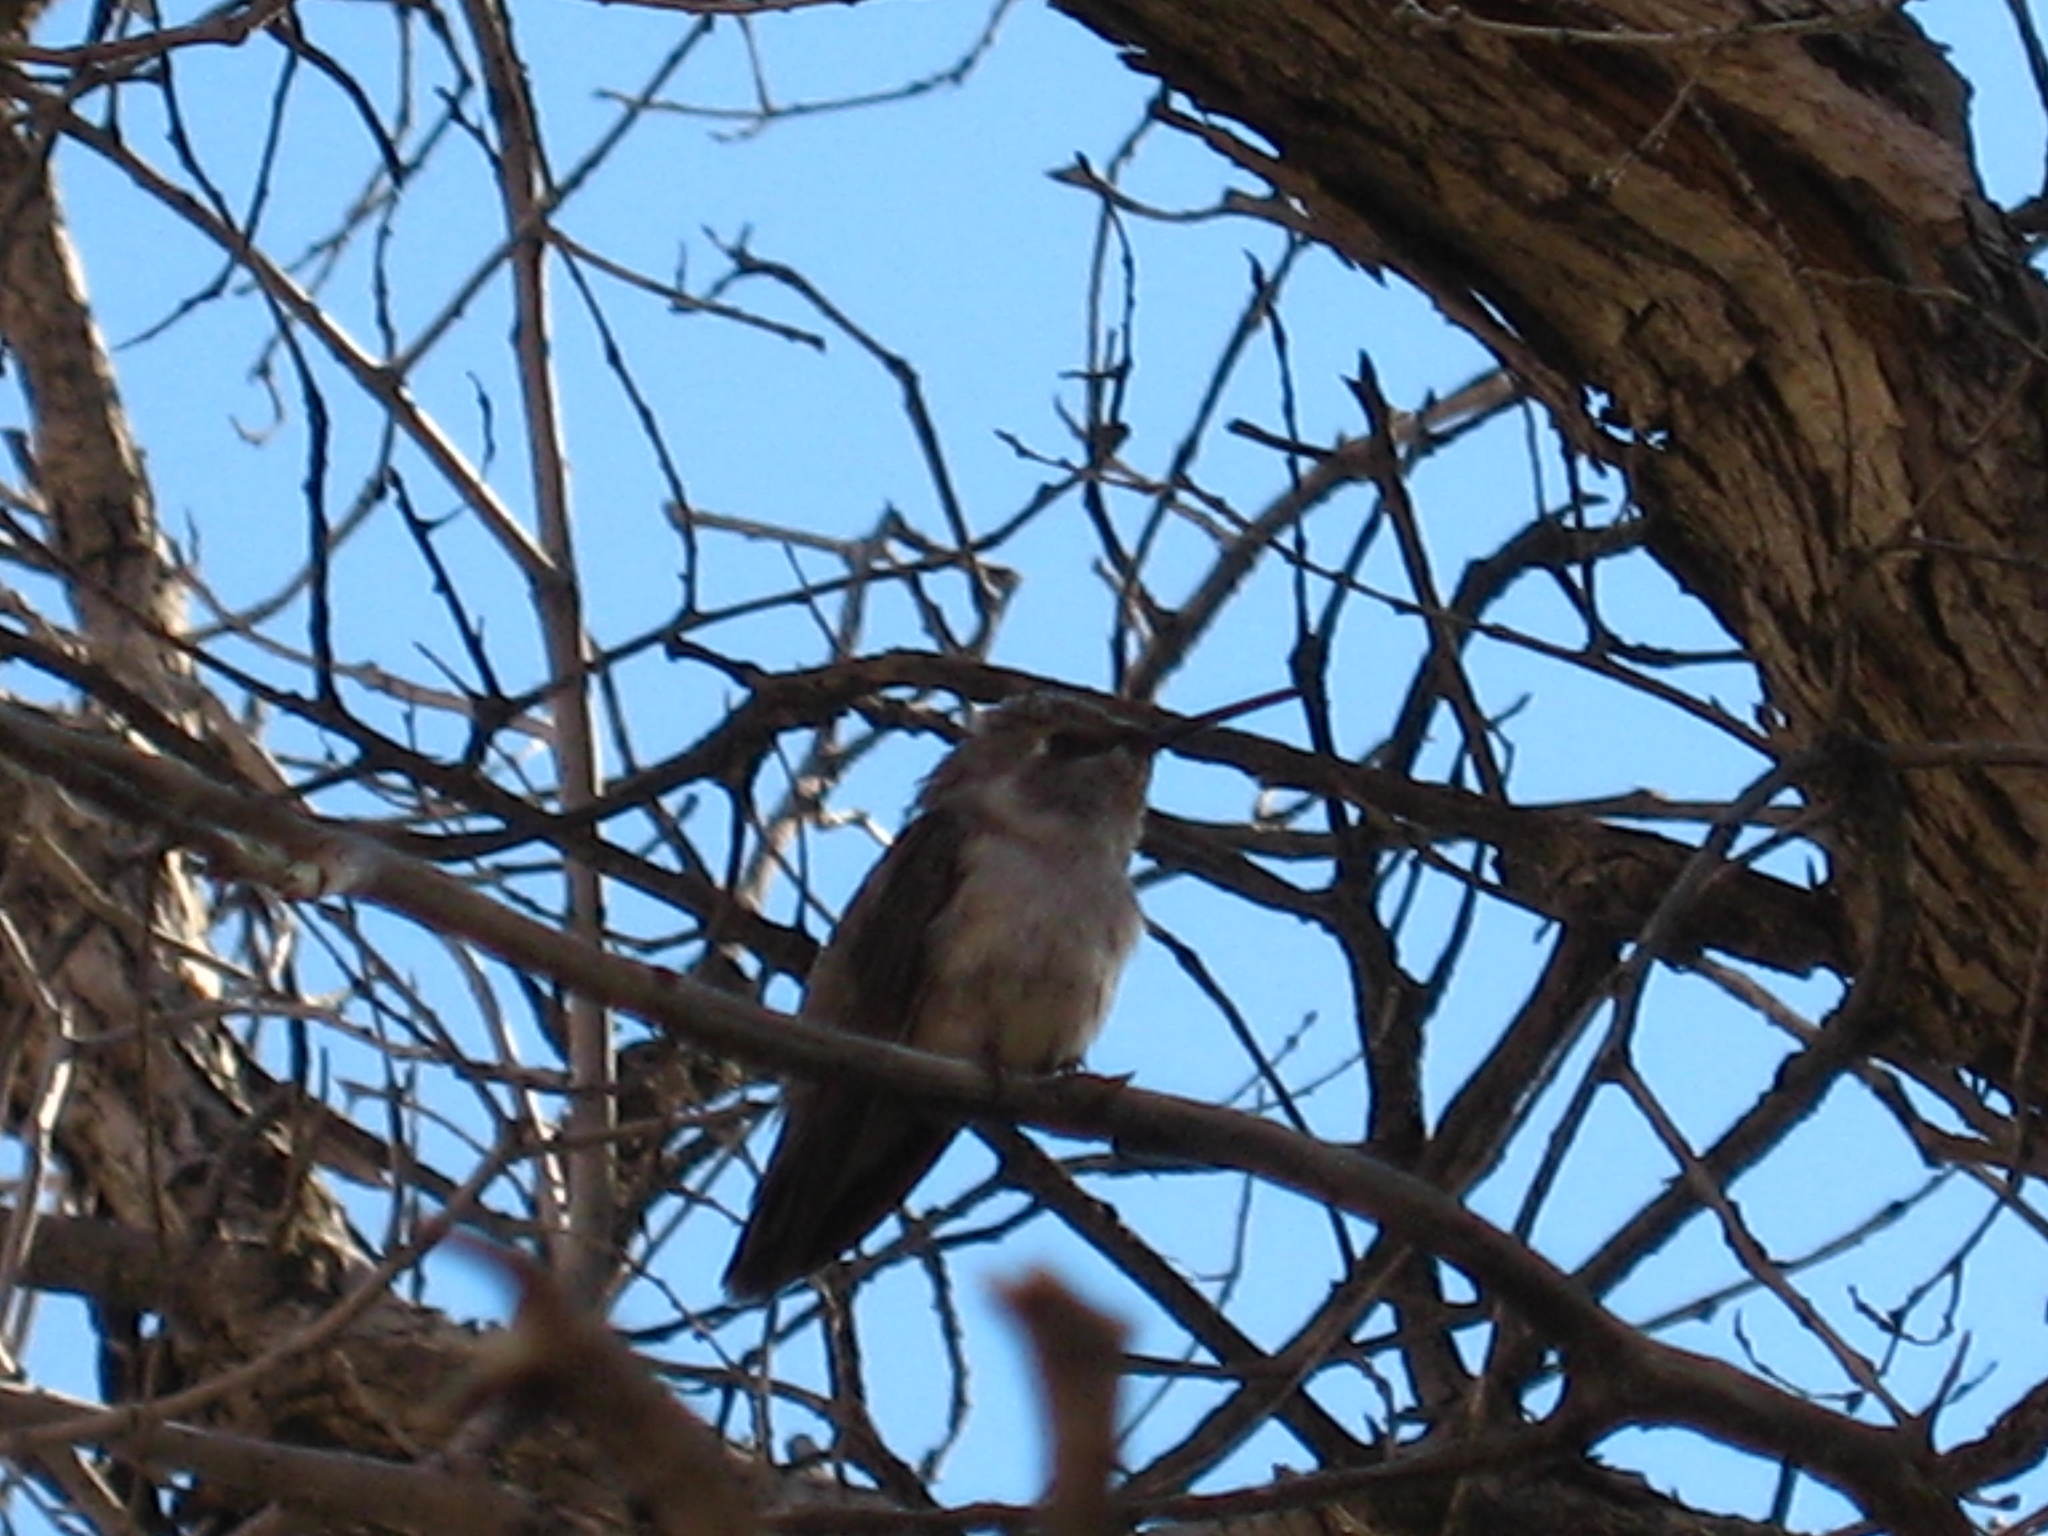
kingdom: Animalia
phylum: Chordata
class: Aves
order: Apodiformes
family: Trochilidae
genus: Calypte
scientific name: Calypte costae
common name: Costa's hummingbird
